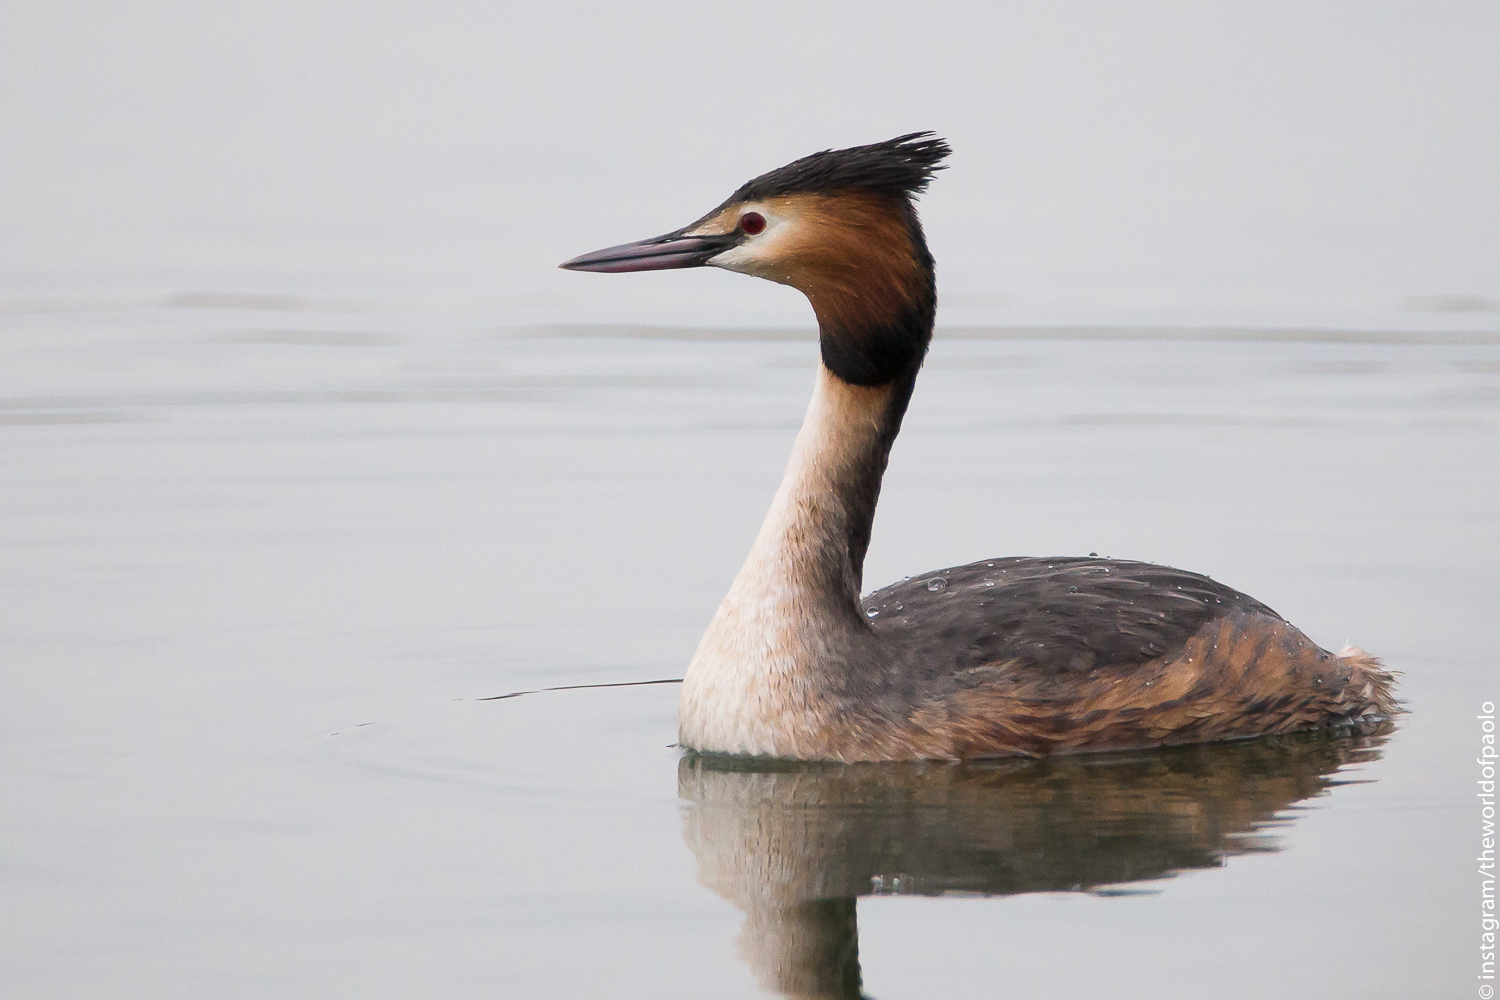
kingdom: Animalia
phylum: Chordata
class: Aves
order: Podicipediformes
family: Podicipedidae
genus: Podiceps
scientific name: Podiceps cristatus
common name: Great crested grebe
